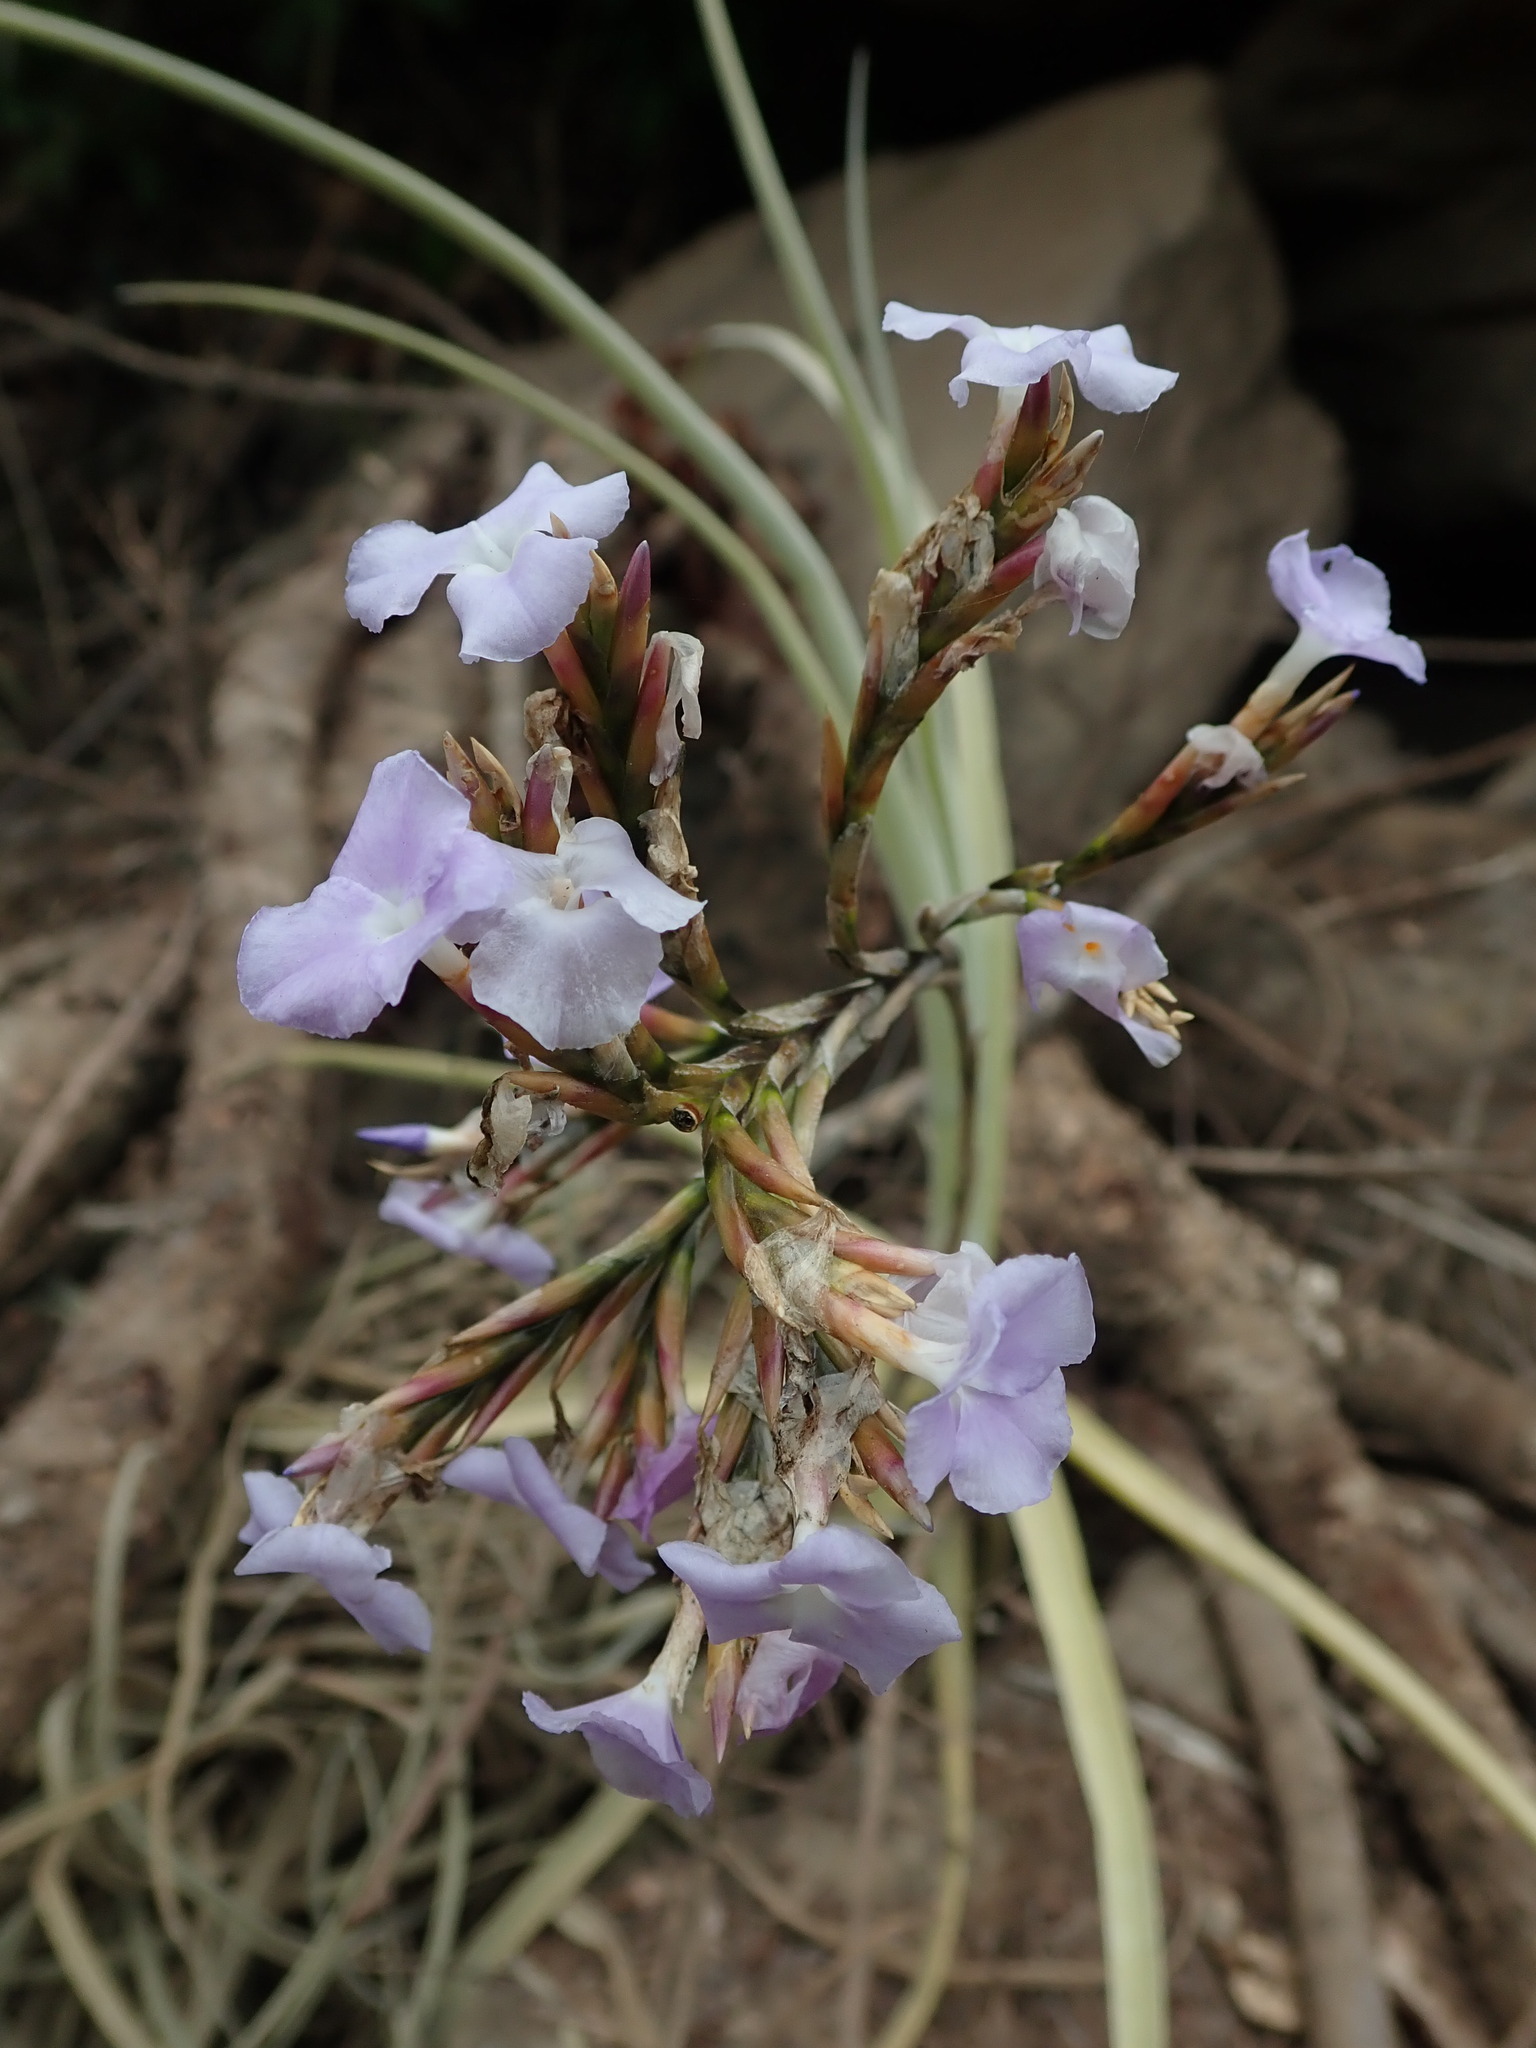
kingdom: Plantae
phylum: Tracheophyta
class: Liliopsida
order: Poales
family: Bromeliaceae
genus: Tillandsia
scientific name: Tillandsia duratii
